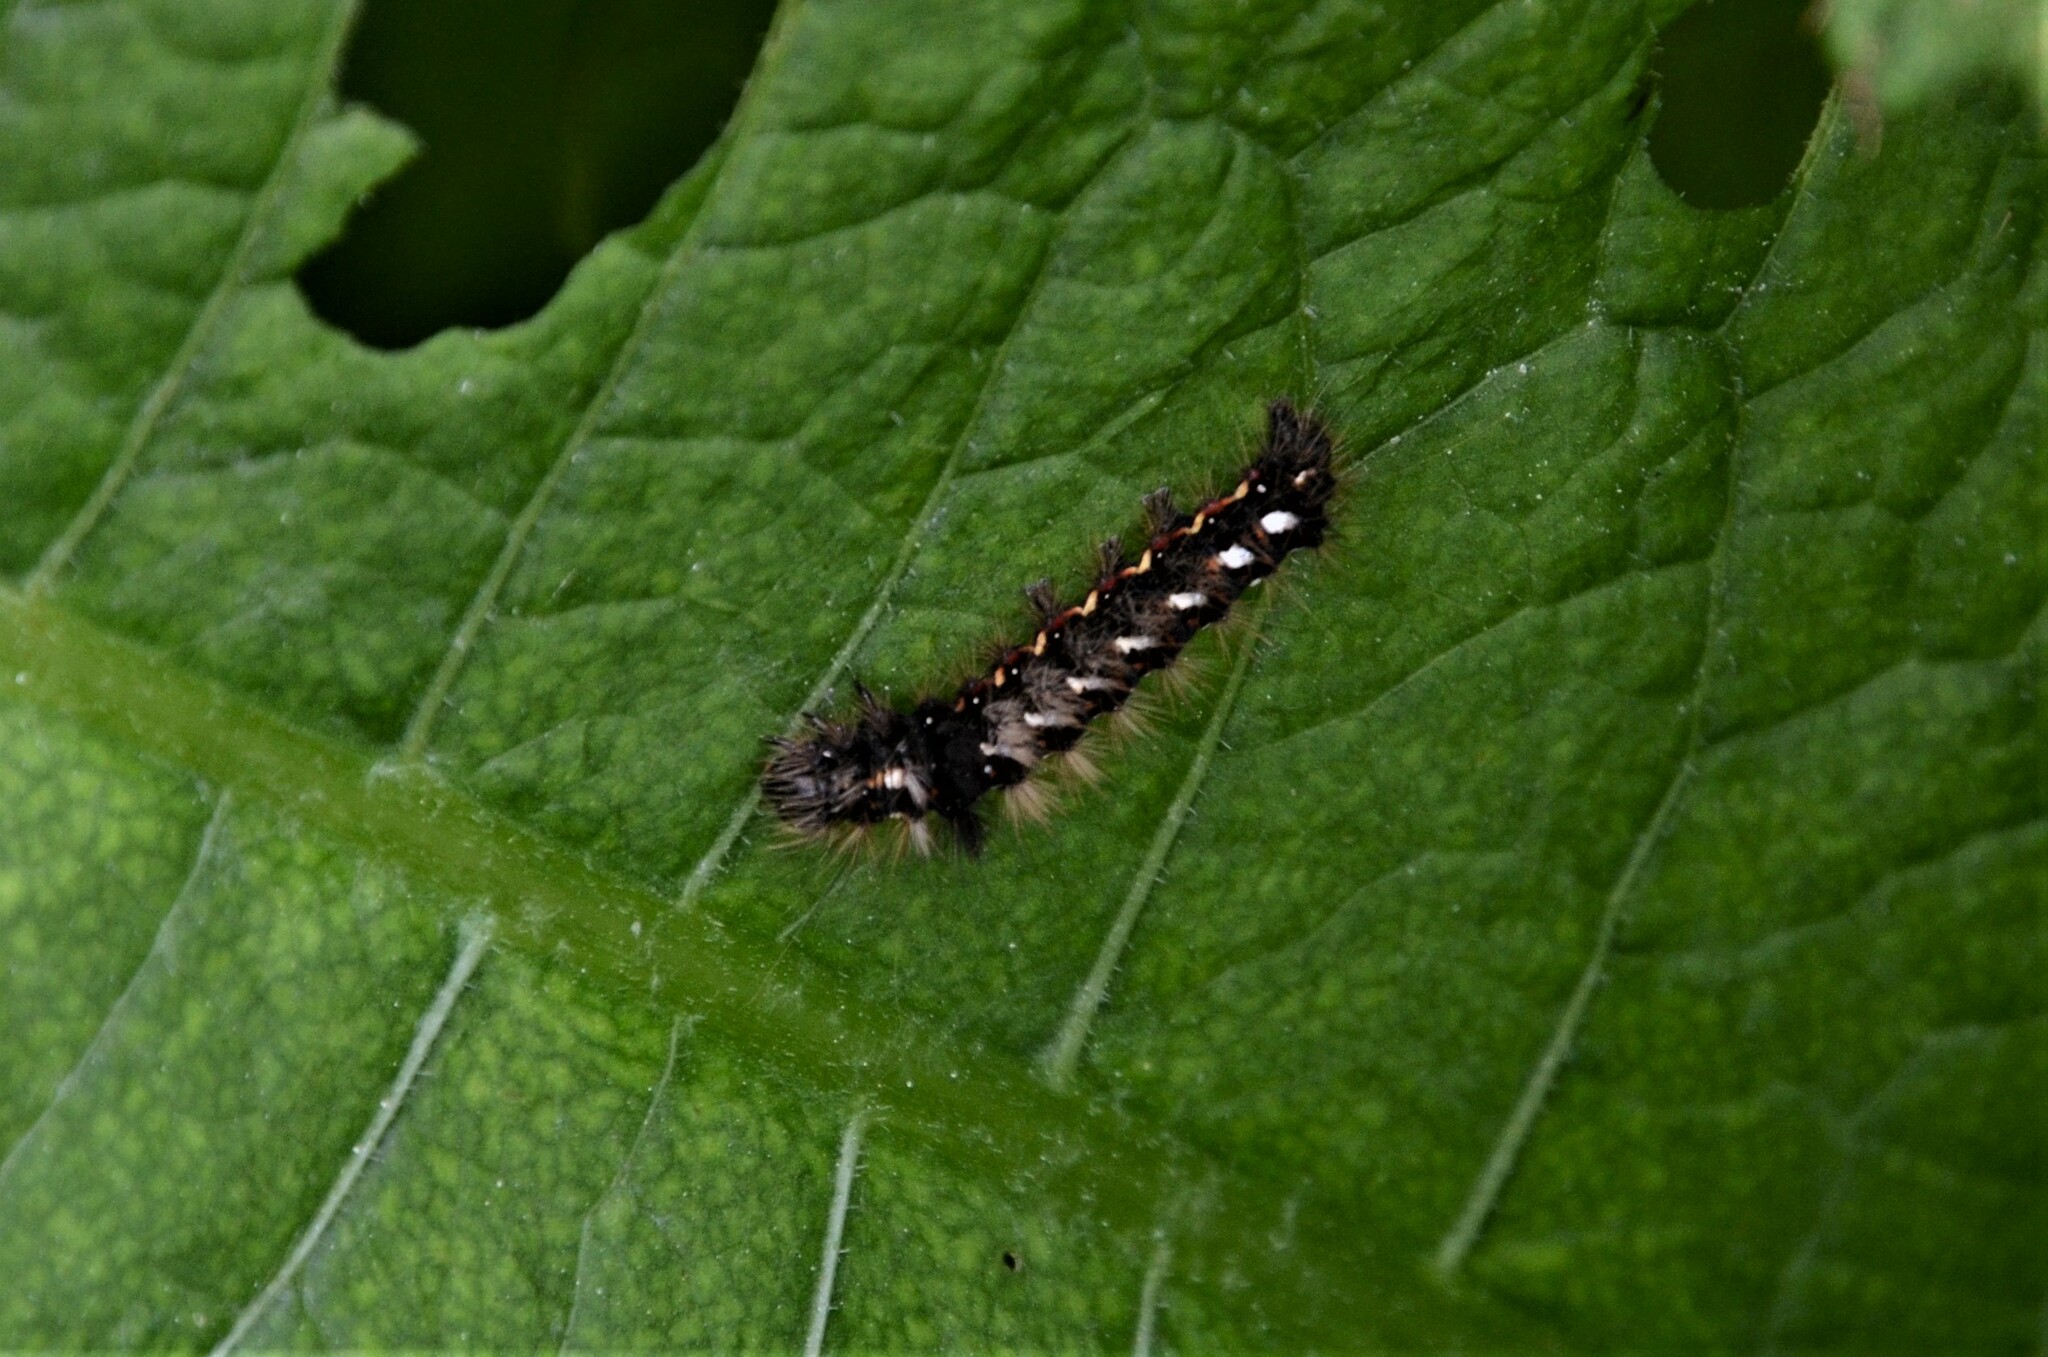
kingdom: Animalia
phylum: Arthropoda
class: Insecta
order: Lepidoptera
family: Noctuidae
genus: Acronicta
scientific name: Acronicta rumicis
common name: Knot grass
